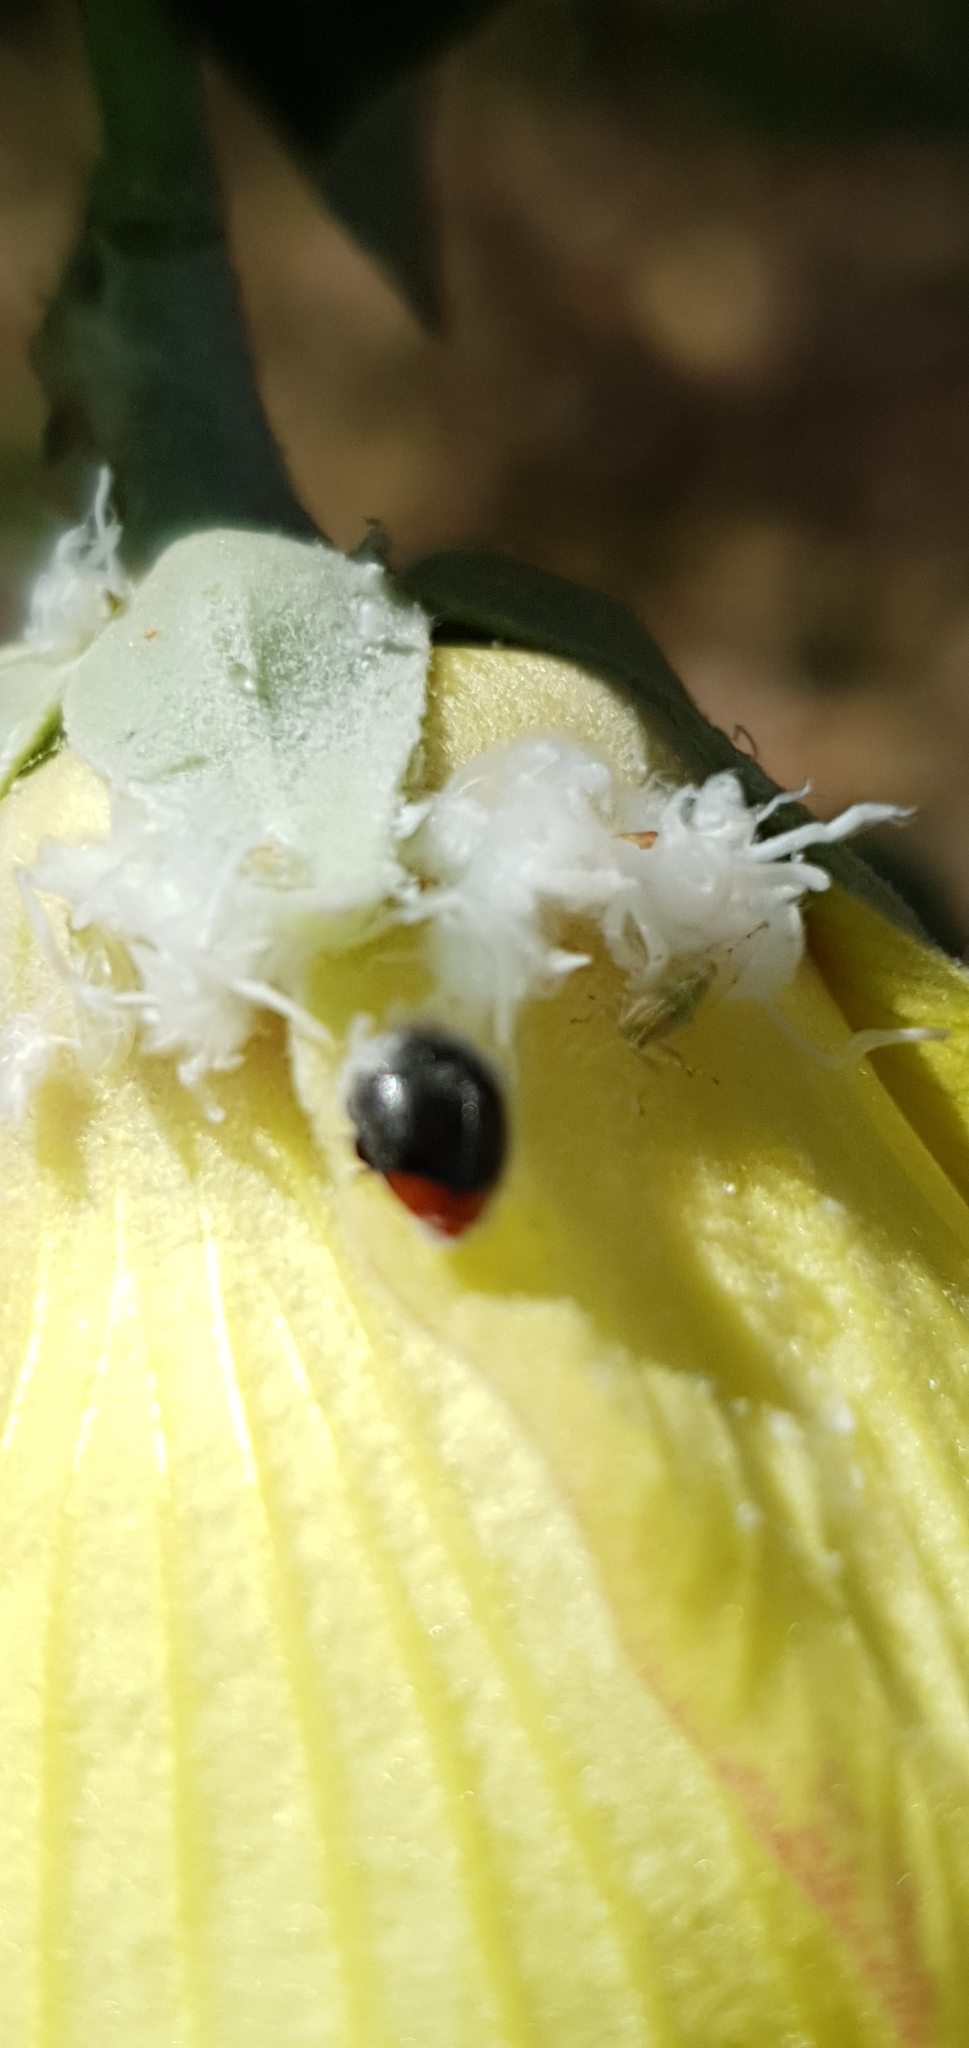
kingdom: Animalia
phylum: Arthropoda
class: Insecta
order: Coleoptera
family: Coccinellidae
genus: Cryptolaemus
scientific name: Cryptolaemus montrouzieri
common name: Mealybug destroyer
